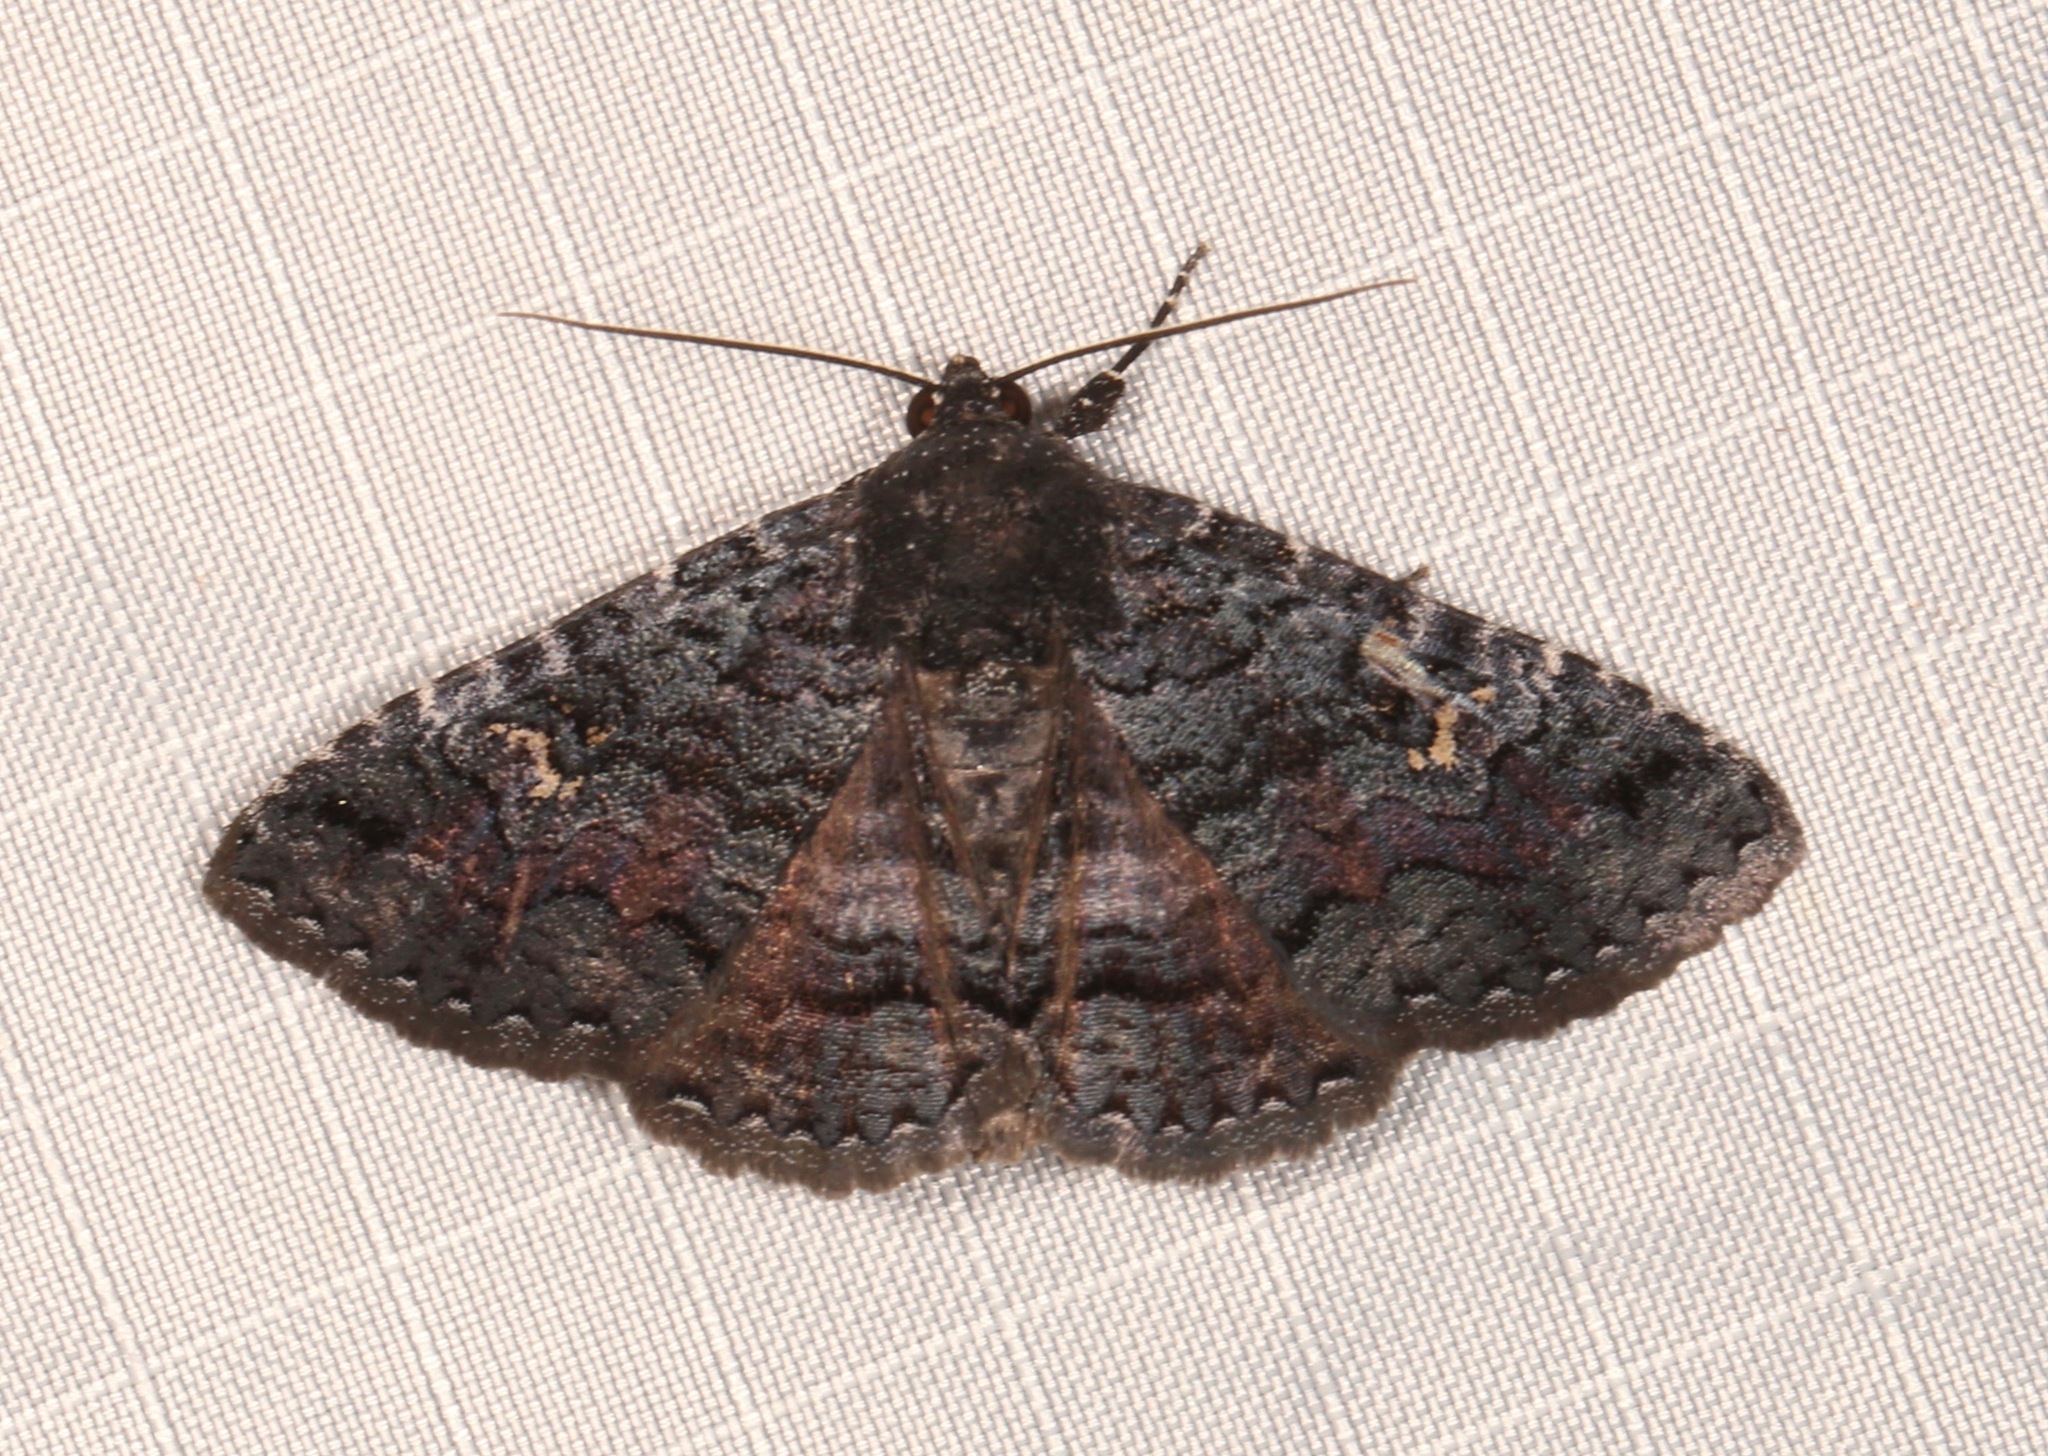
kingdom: Animalia
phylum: Arthropoda
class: Insecta
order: Lepidoptera
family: Erebidae
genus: Zale
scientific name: Zale coracias
